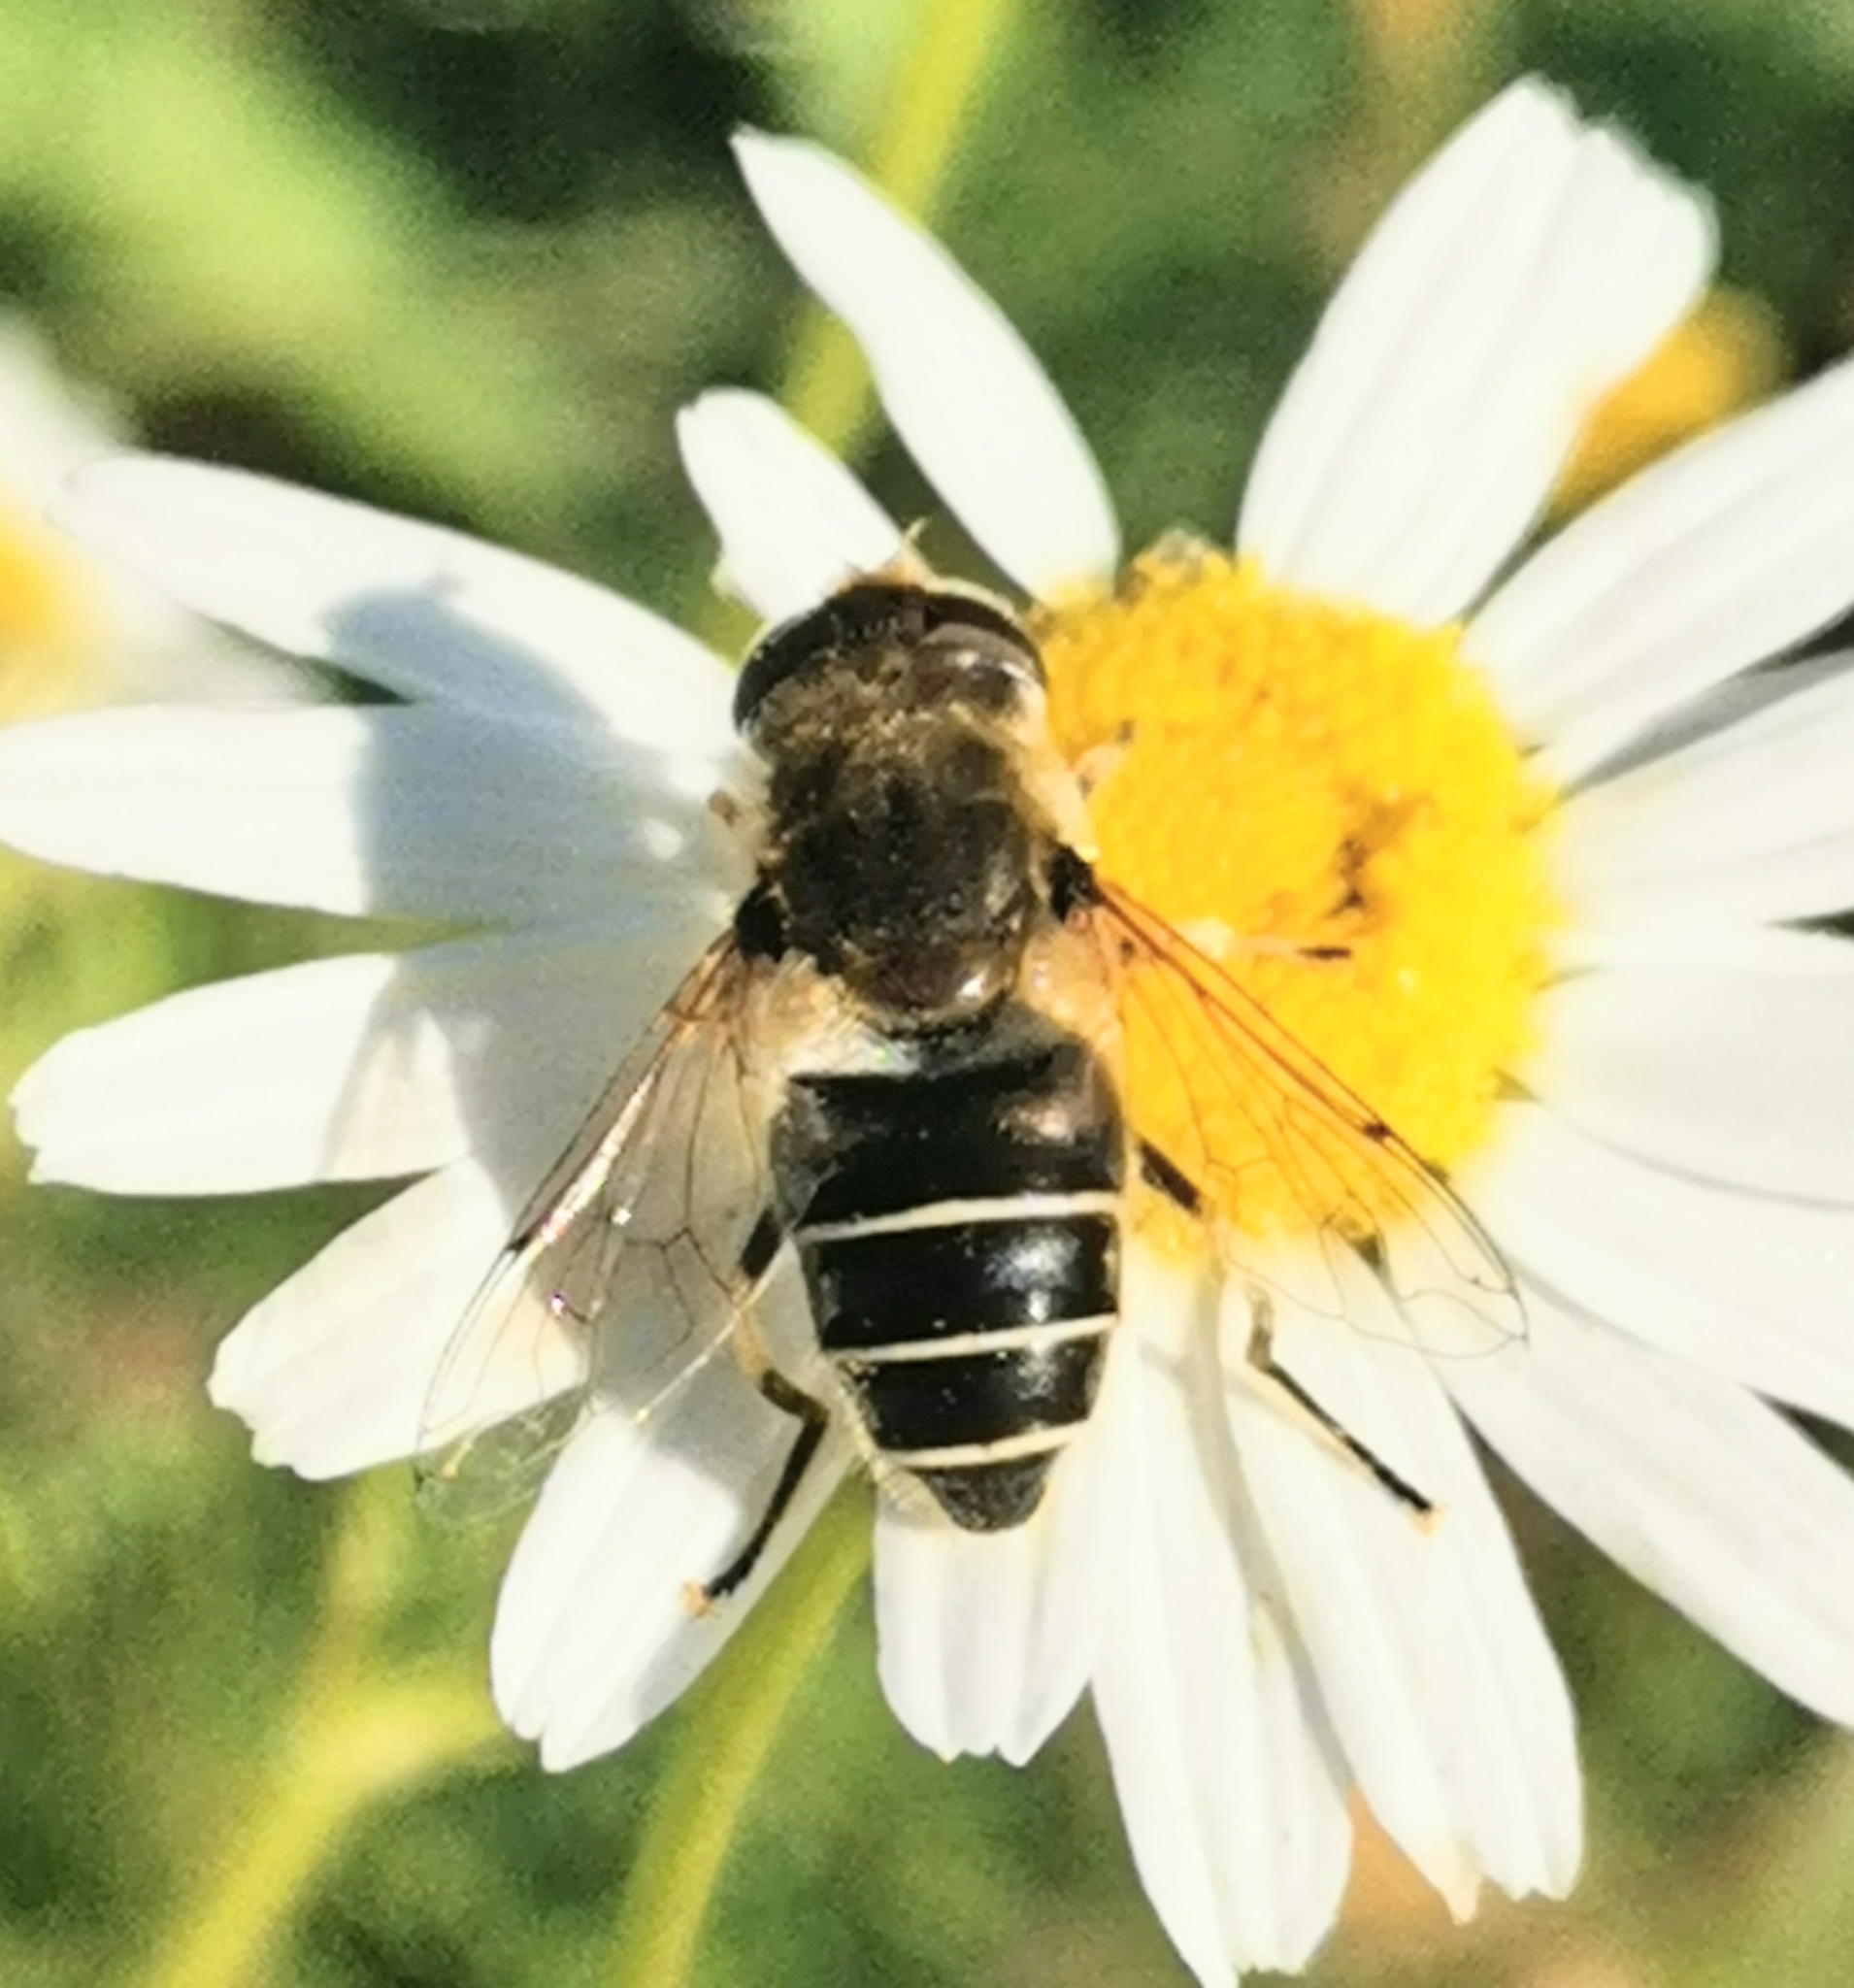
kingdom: Animalia
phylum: Arthropoda
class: Insecta
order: Diptera
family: Syrphidae
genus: Eristalis
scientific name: Eristalis nemorum
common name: Orange-spined drone fly
